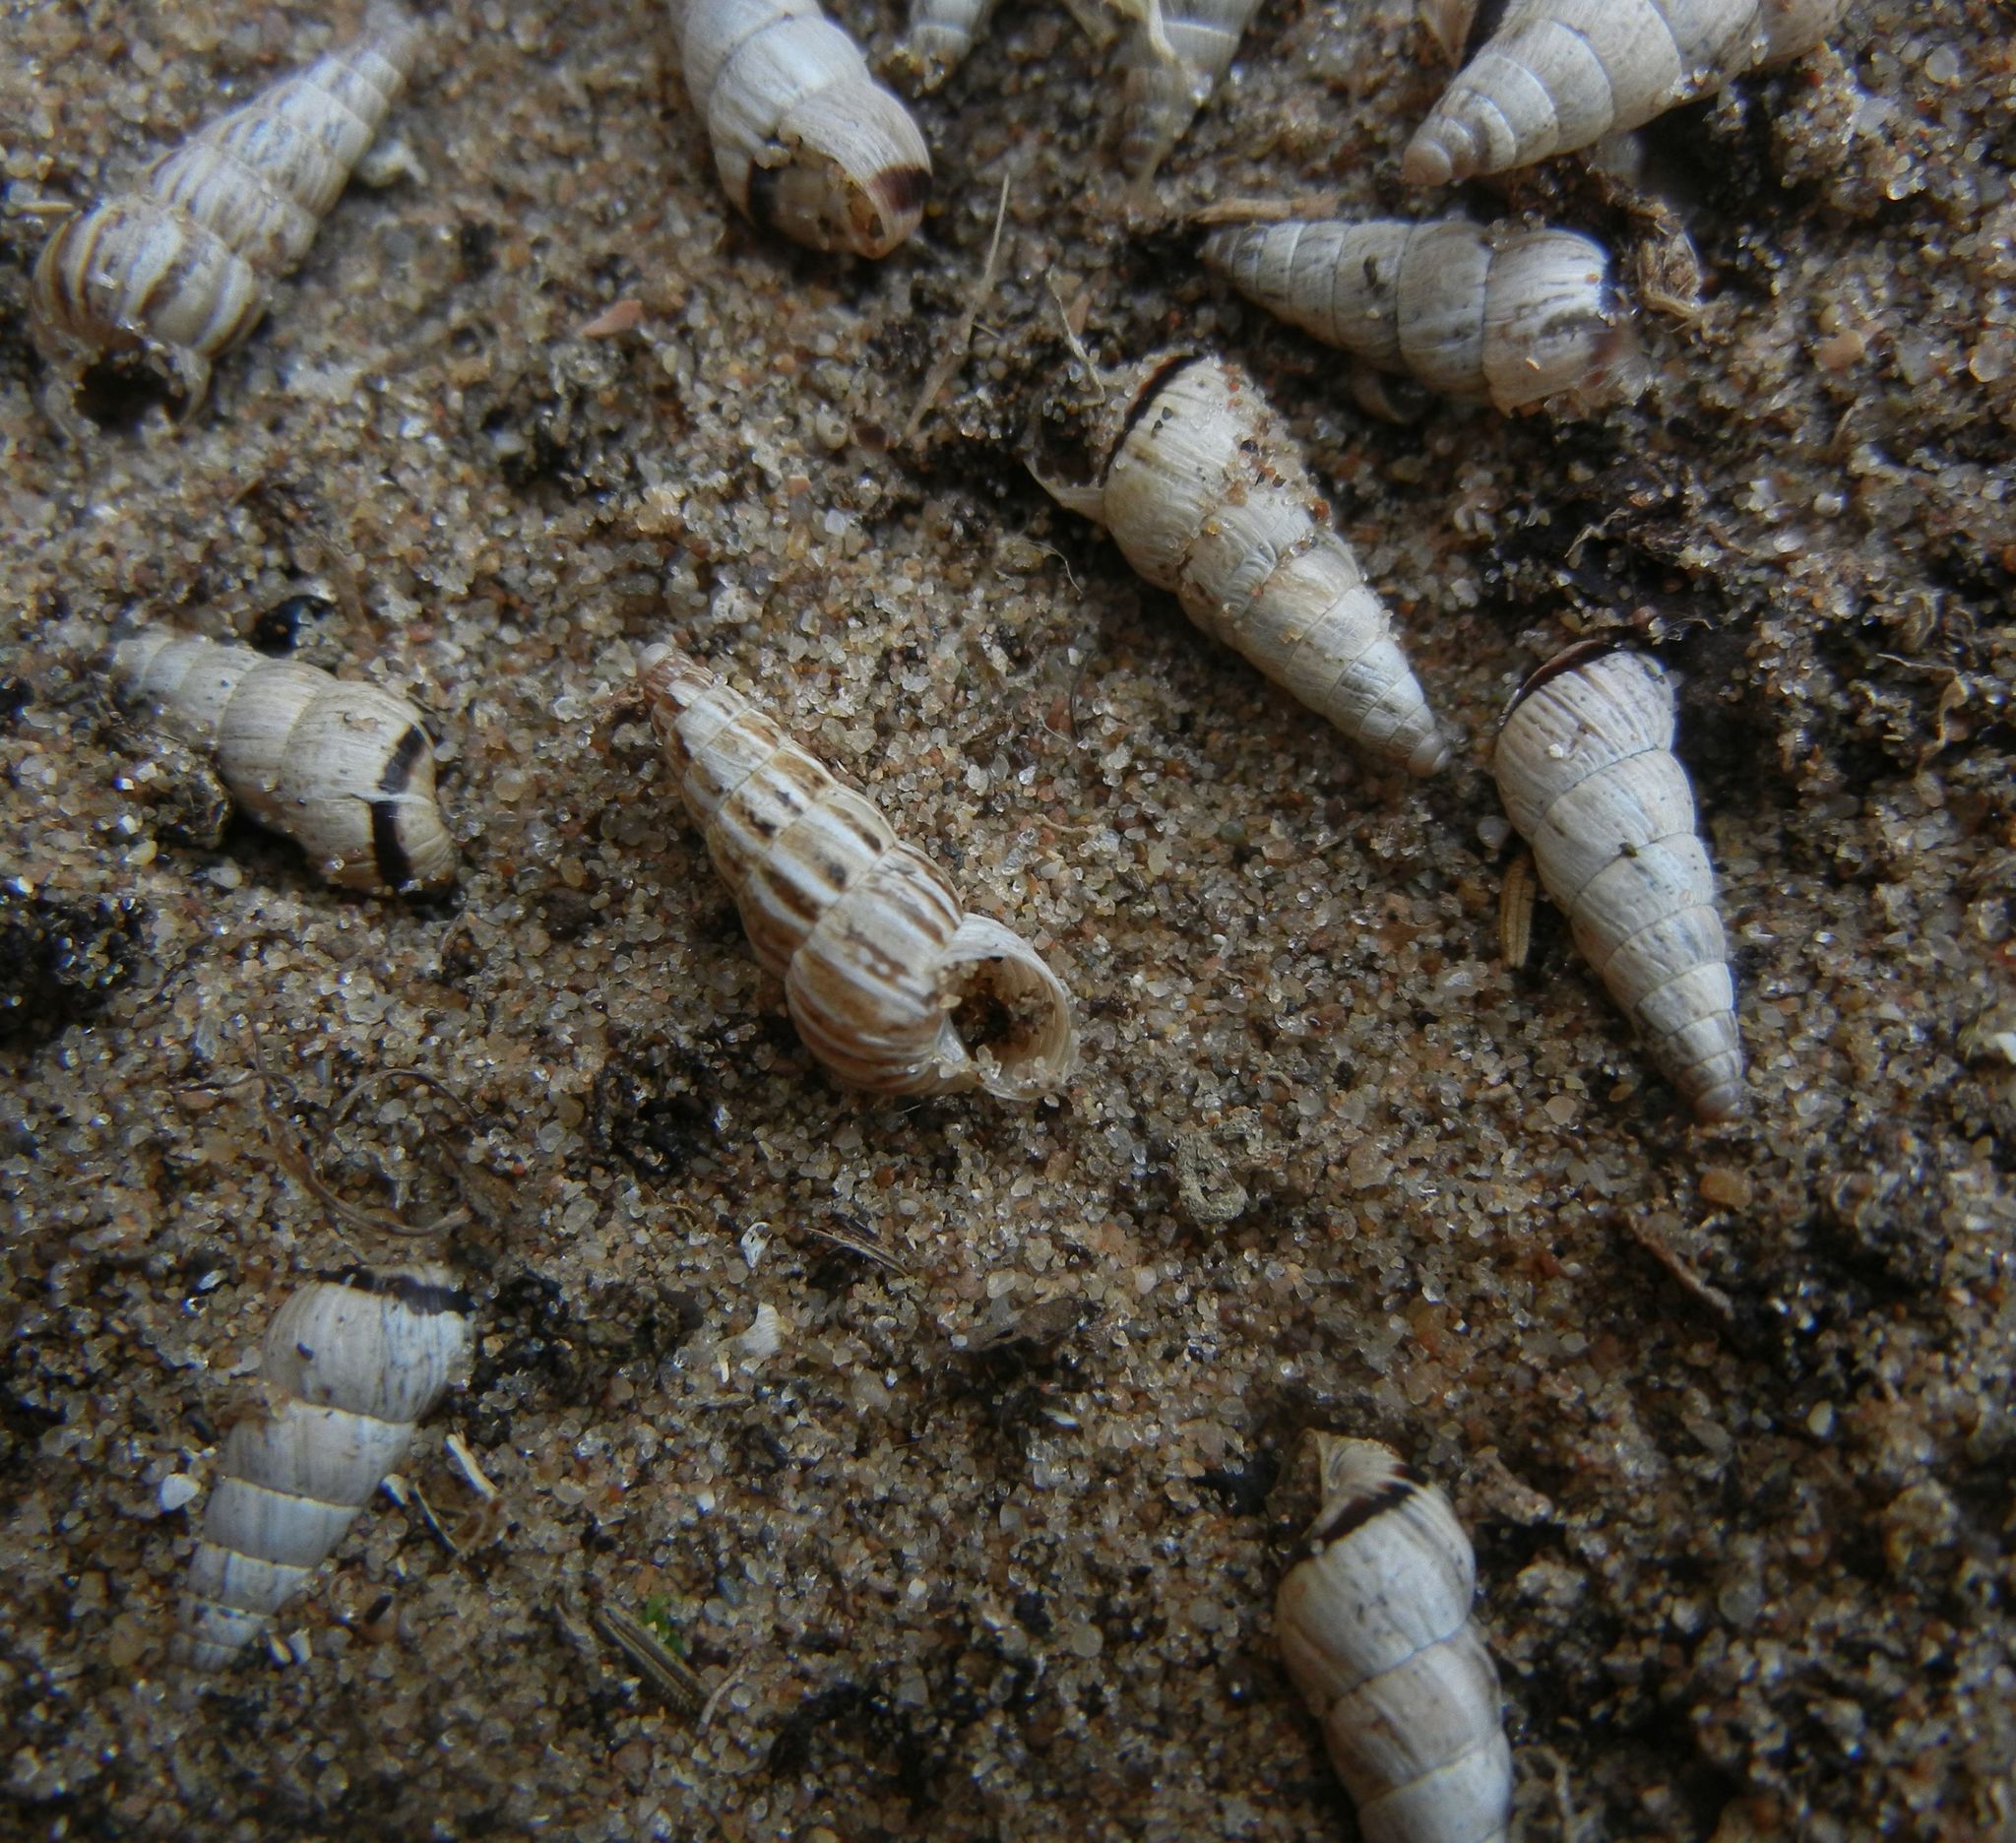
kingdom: Animalia
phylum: Mollusca
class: Gastropoda
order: Stylommatophora
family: Geomitridae
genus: Cochlicella
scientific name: Cochlicella acuta
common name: Pointed snail
